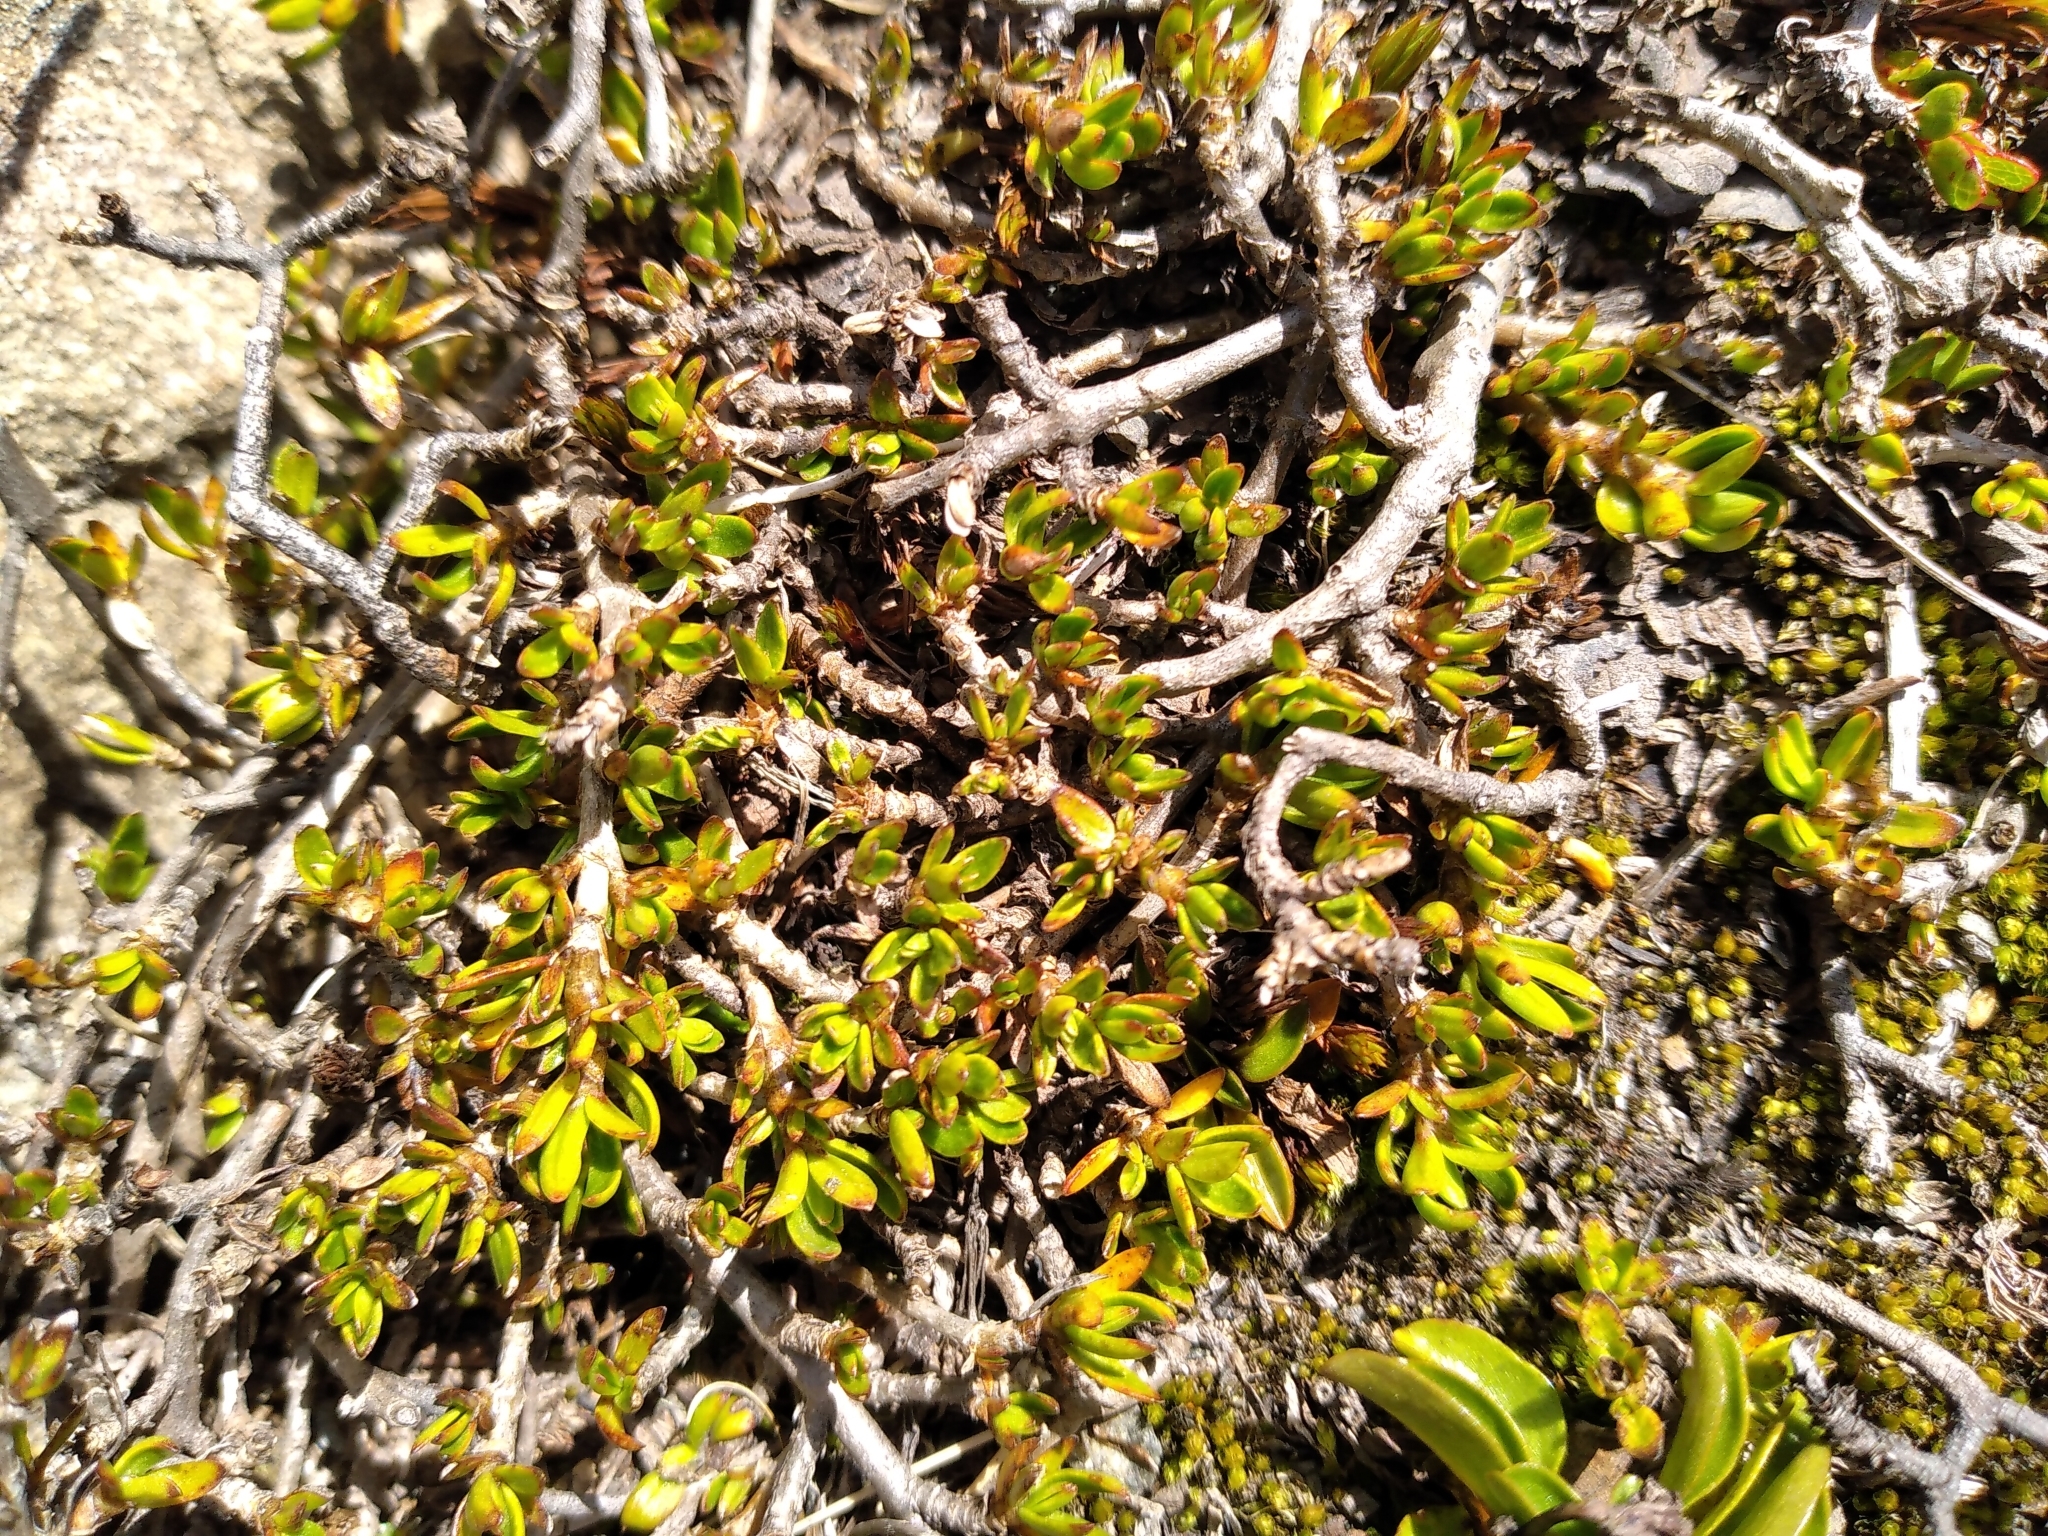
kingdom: Plantae
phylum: Tracheophyta
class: Magnoliopsida
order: Gentianales
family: Rubiaceae
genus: Coprosma
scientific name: Coprosma perpusilla
